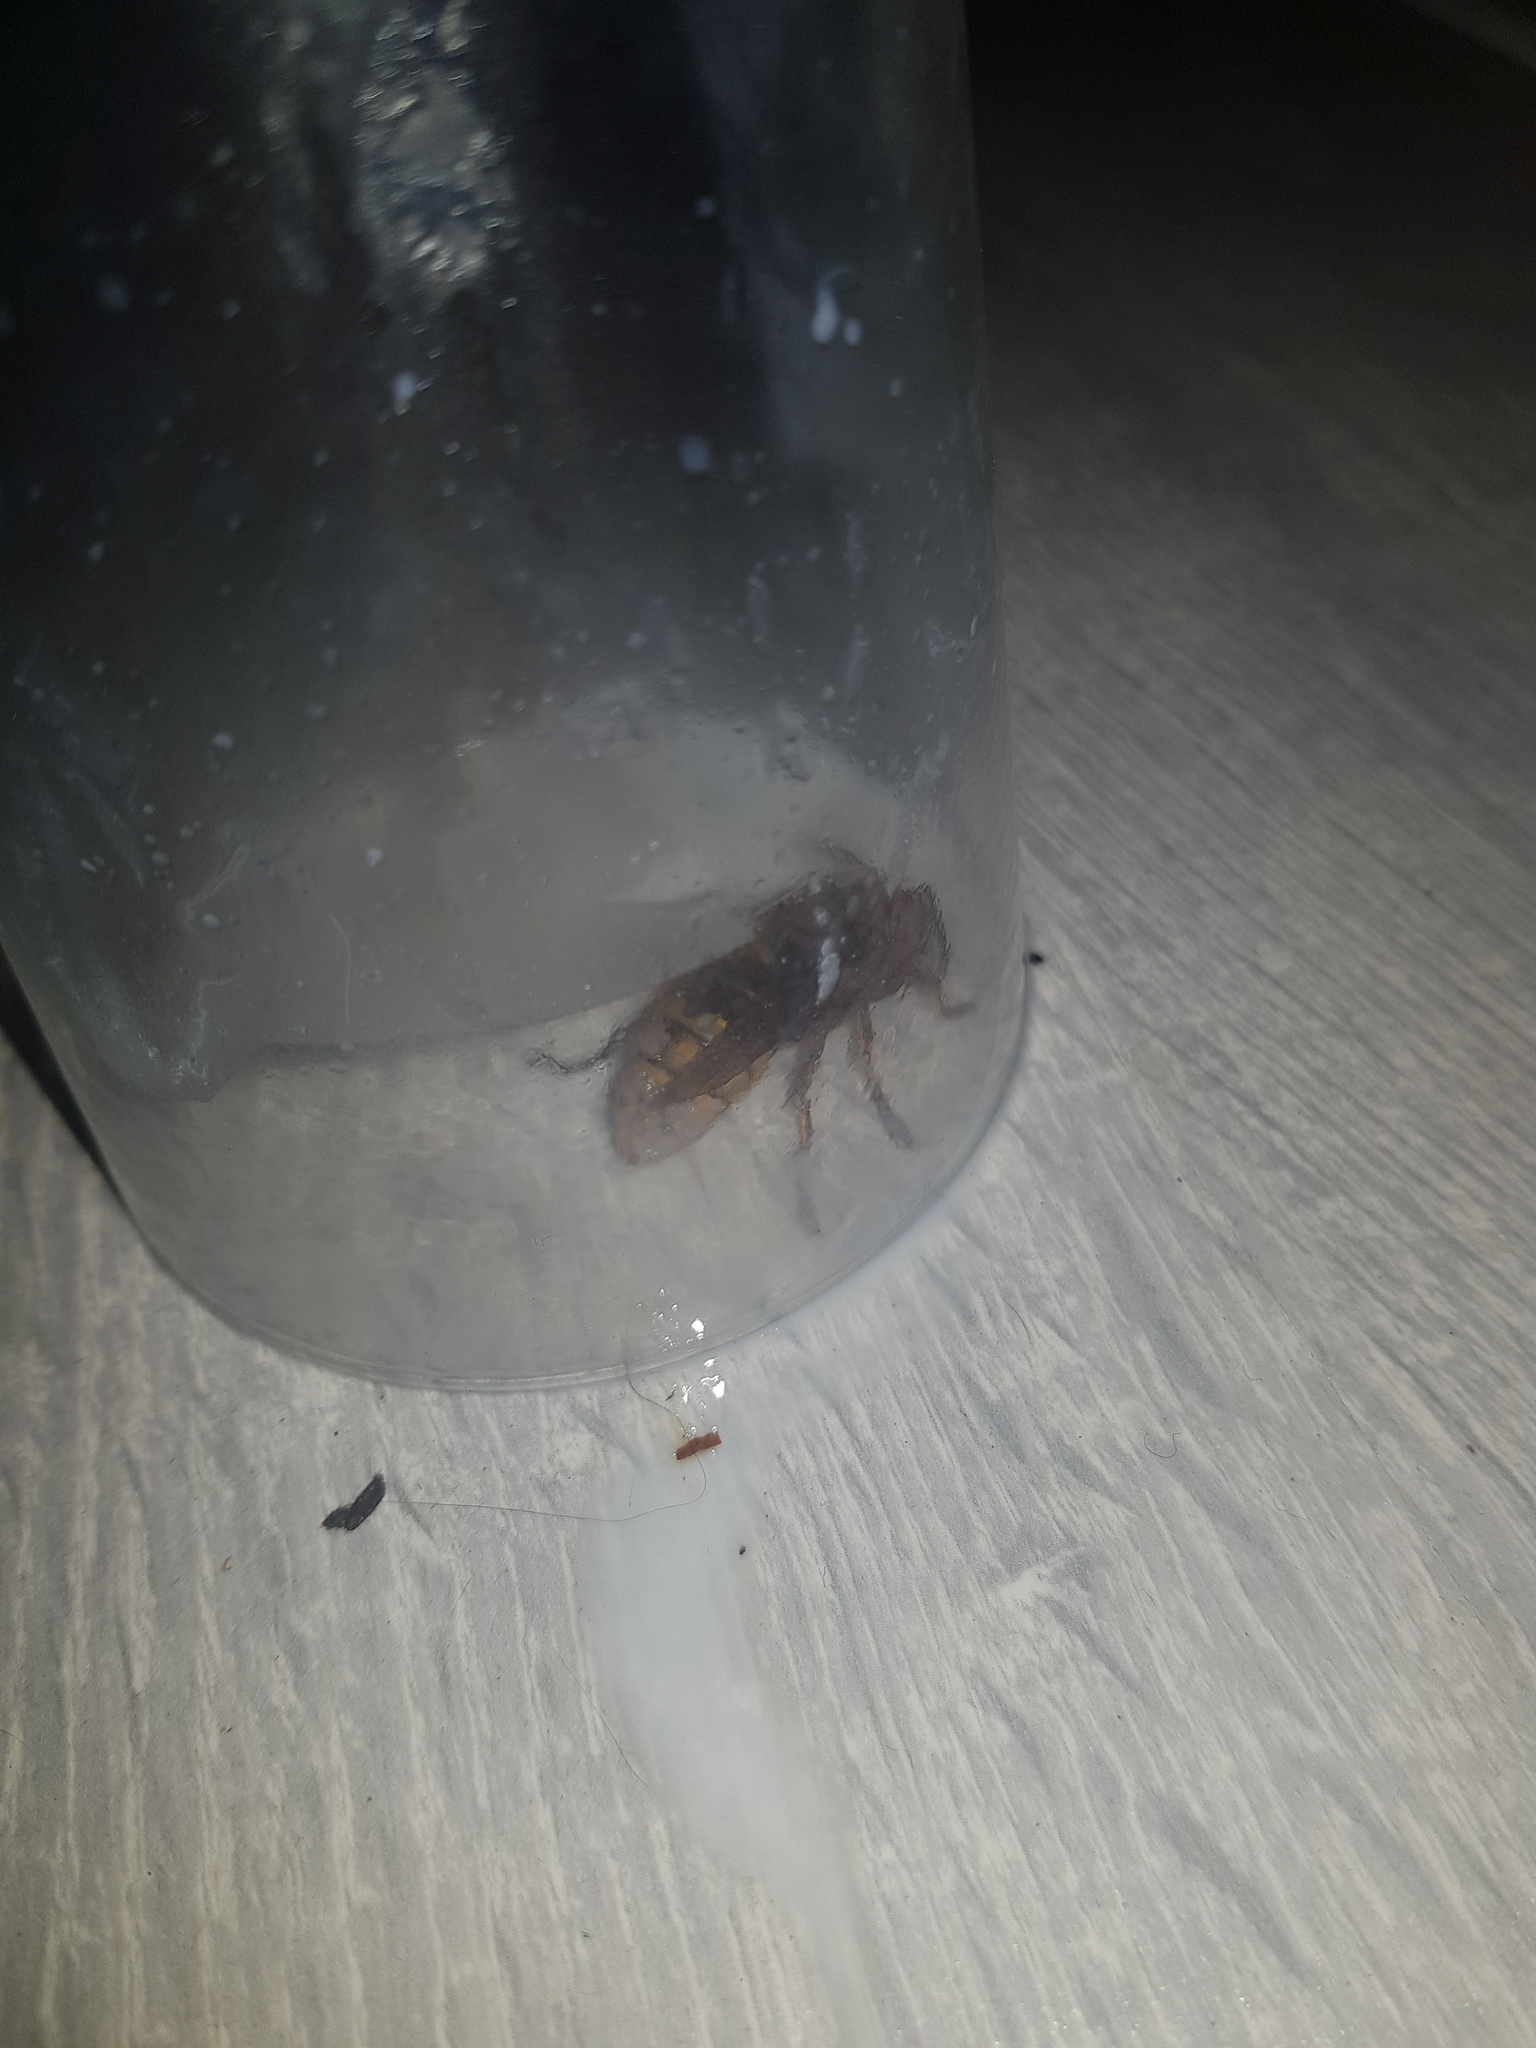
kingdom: Animalia
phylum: Arthropoda
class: Insecta
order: Hymenoptera
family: Vespidae
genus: Vespa
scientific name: Vespa crabro
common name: Hornet
